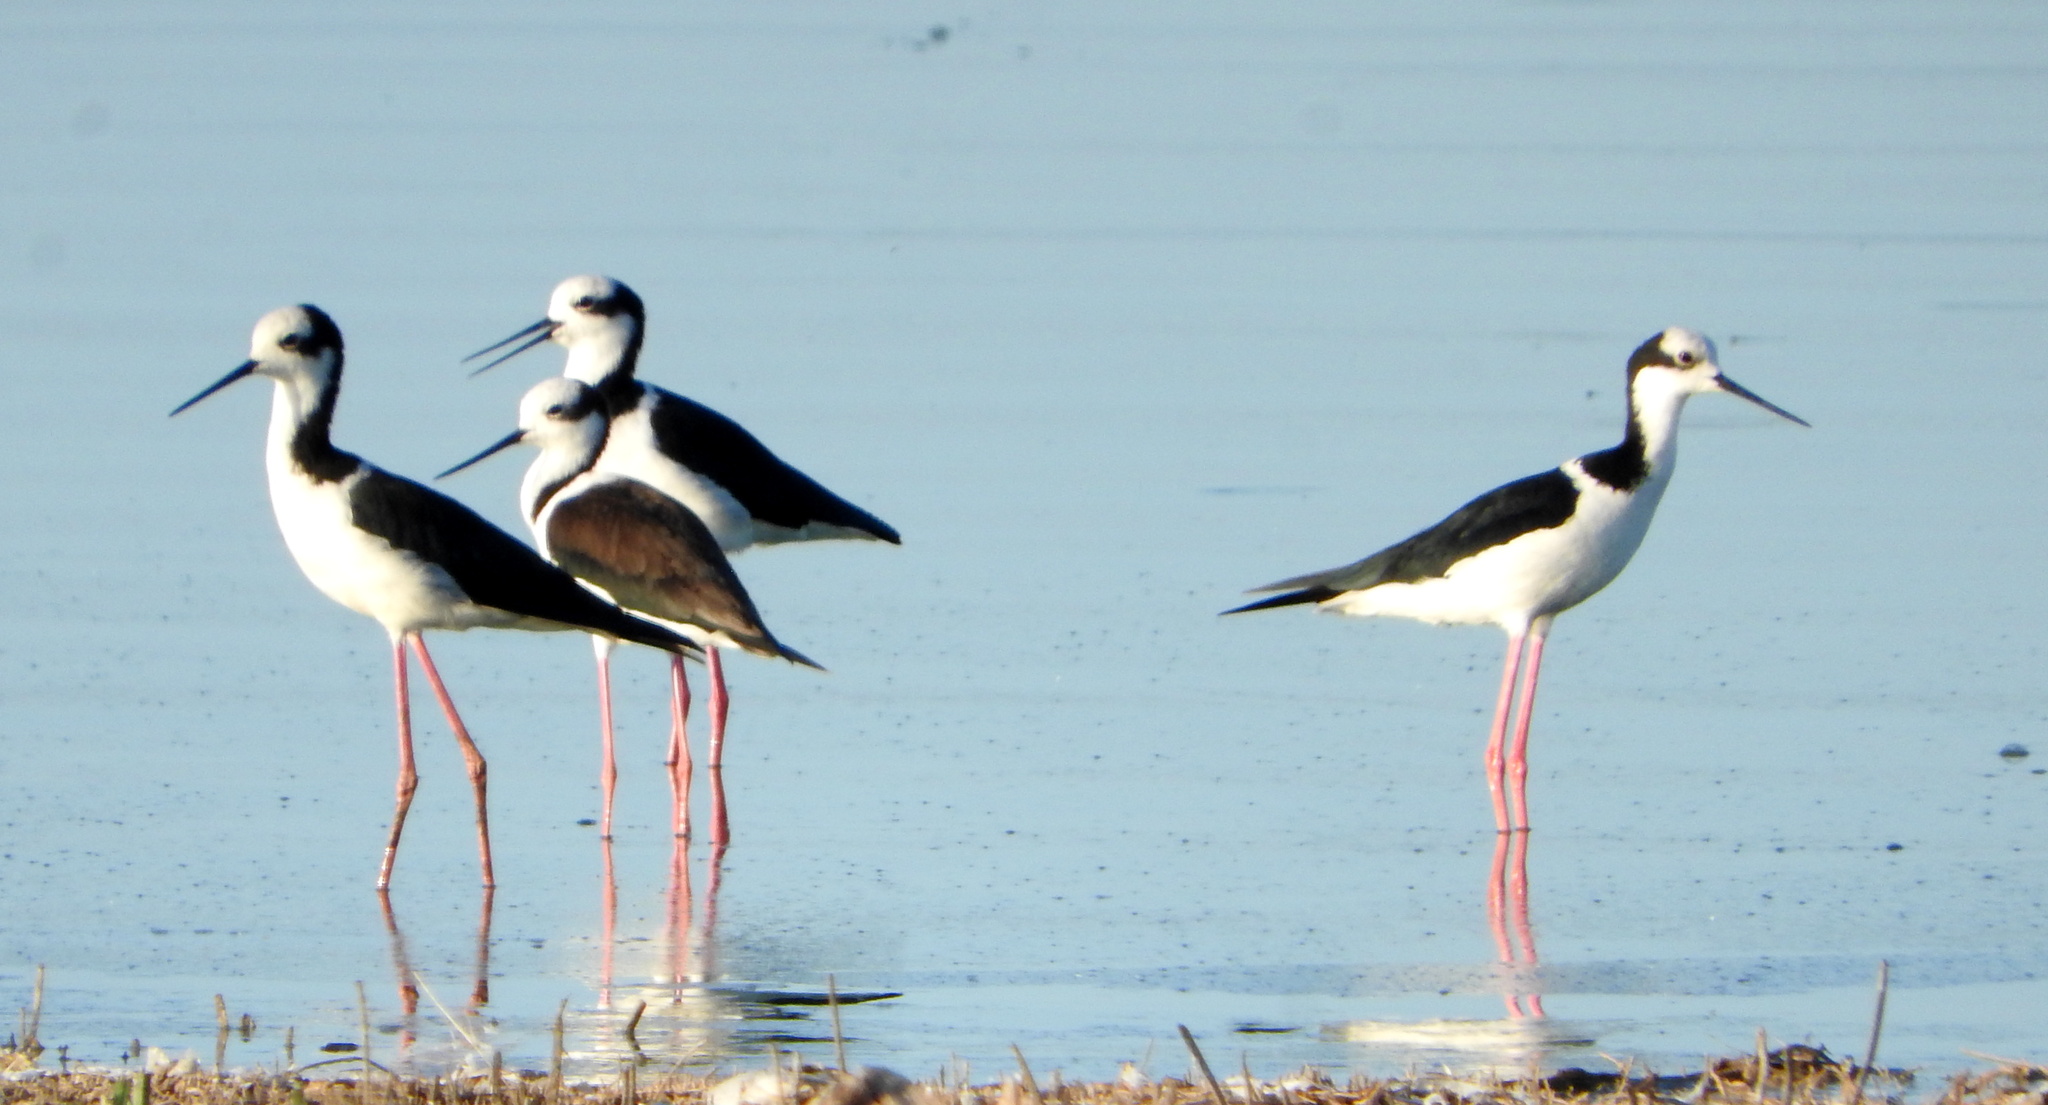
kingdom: Animalia
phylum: Chordata
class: Aves
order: Charadriiformes
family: Recurvirostridae
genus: Himantopus
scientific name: Himantopus mexicanus
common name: Black-necked stilt
